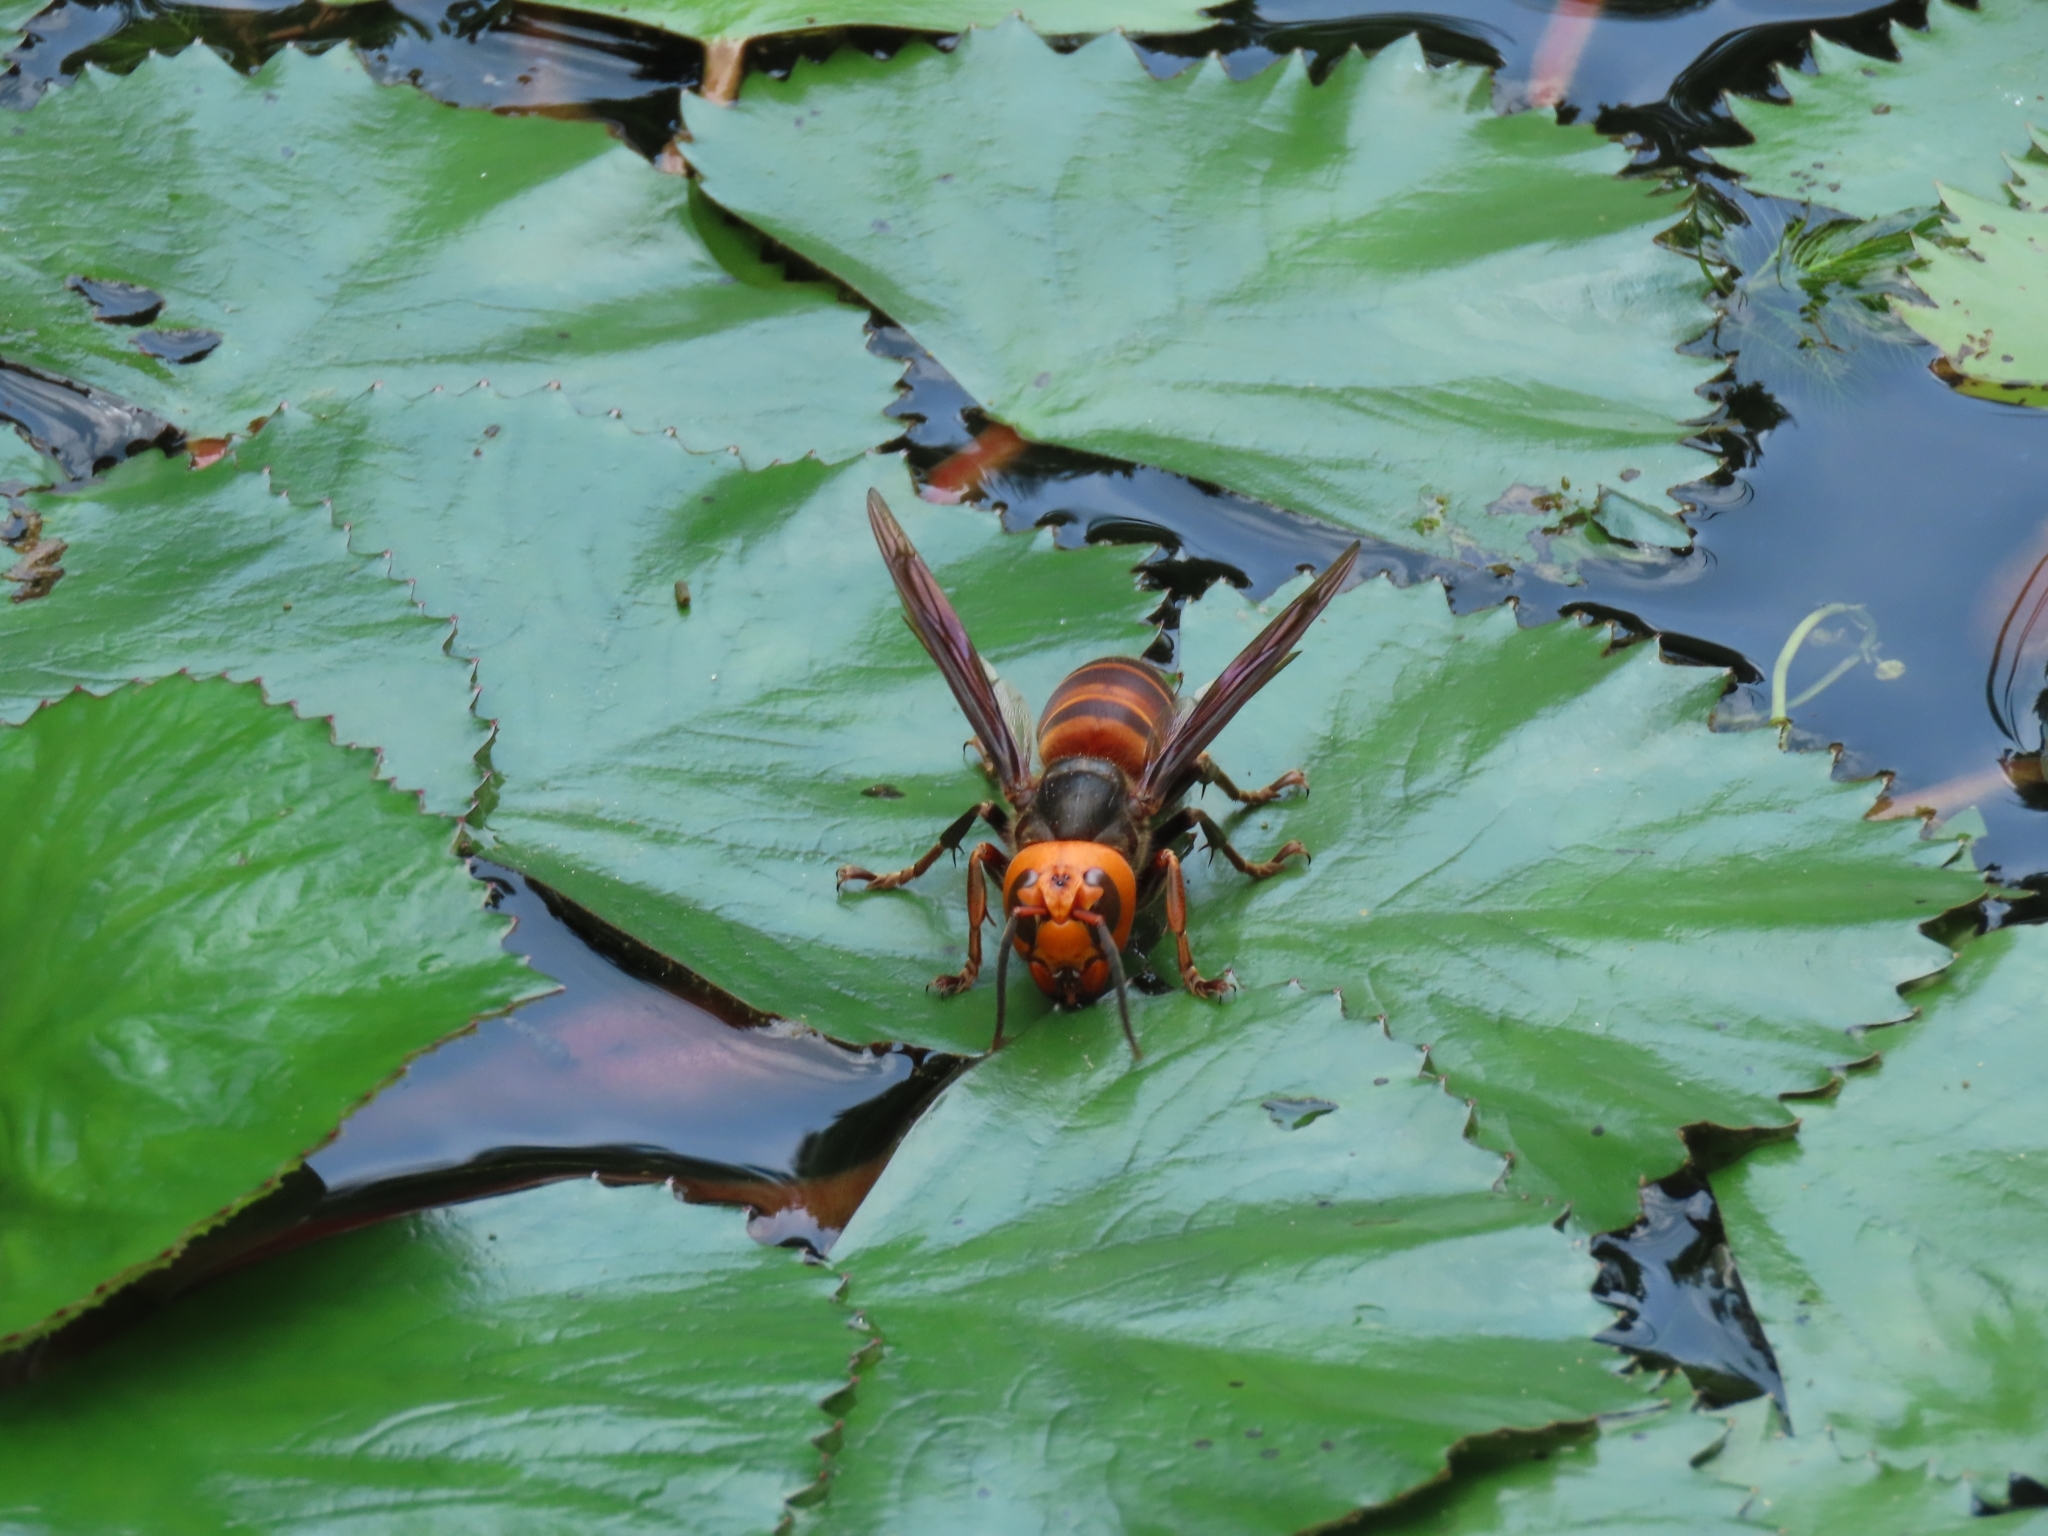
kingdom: Animalia
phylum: Arthropoda
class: Insecta
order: Hymenoptera
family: Vespidae
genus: Vespa
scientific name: Vespa mandarinia
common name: Asian giant hornet
